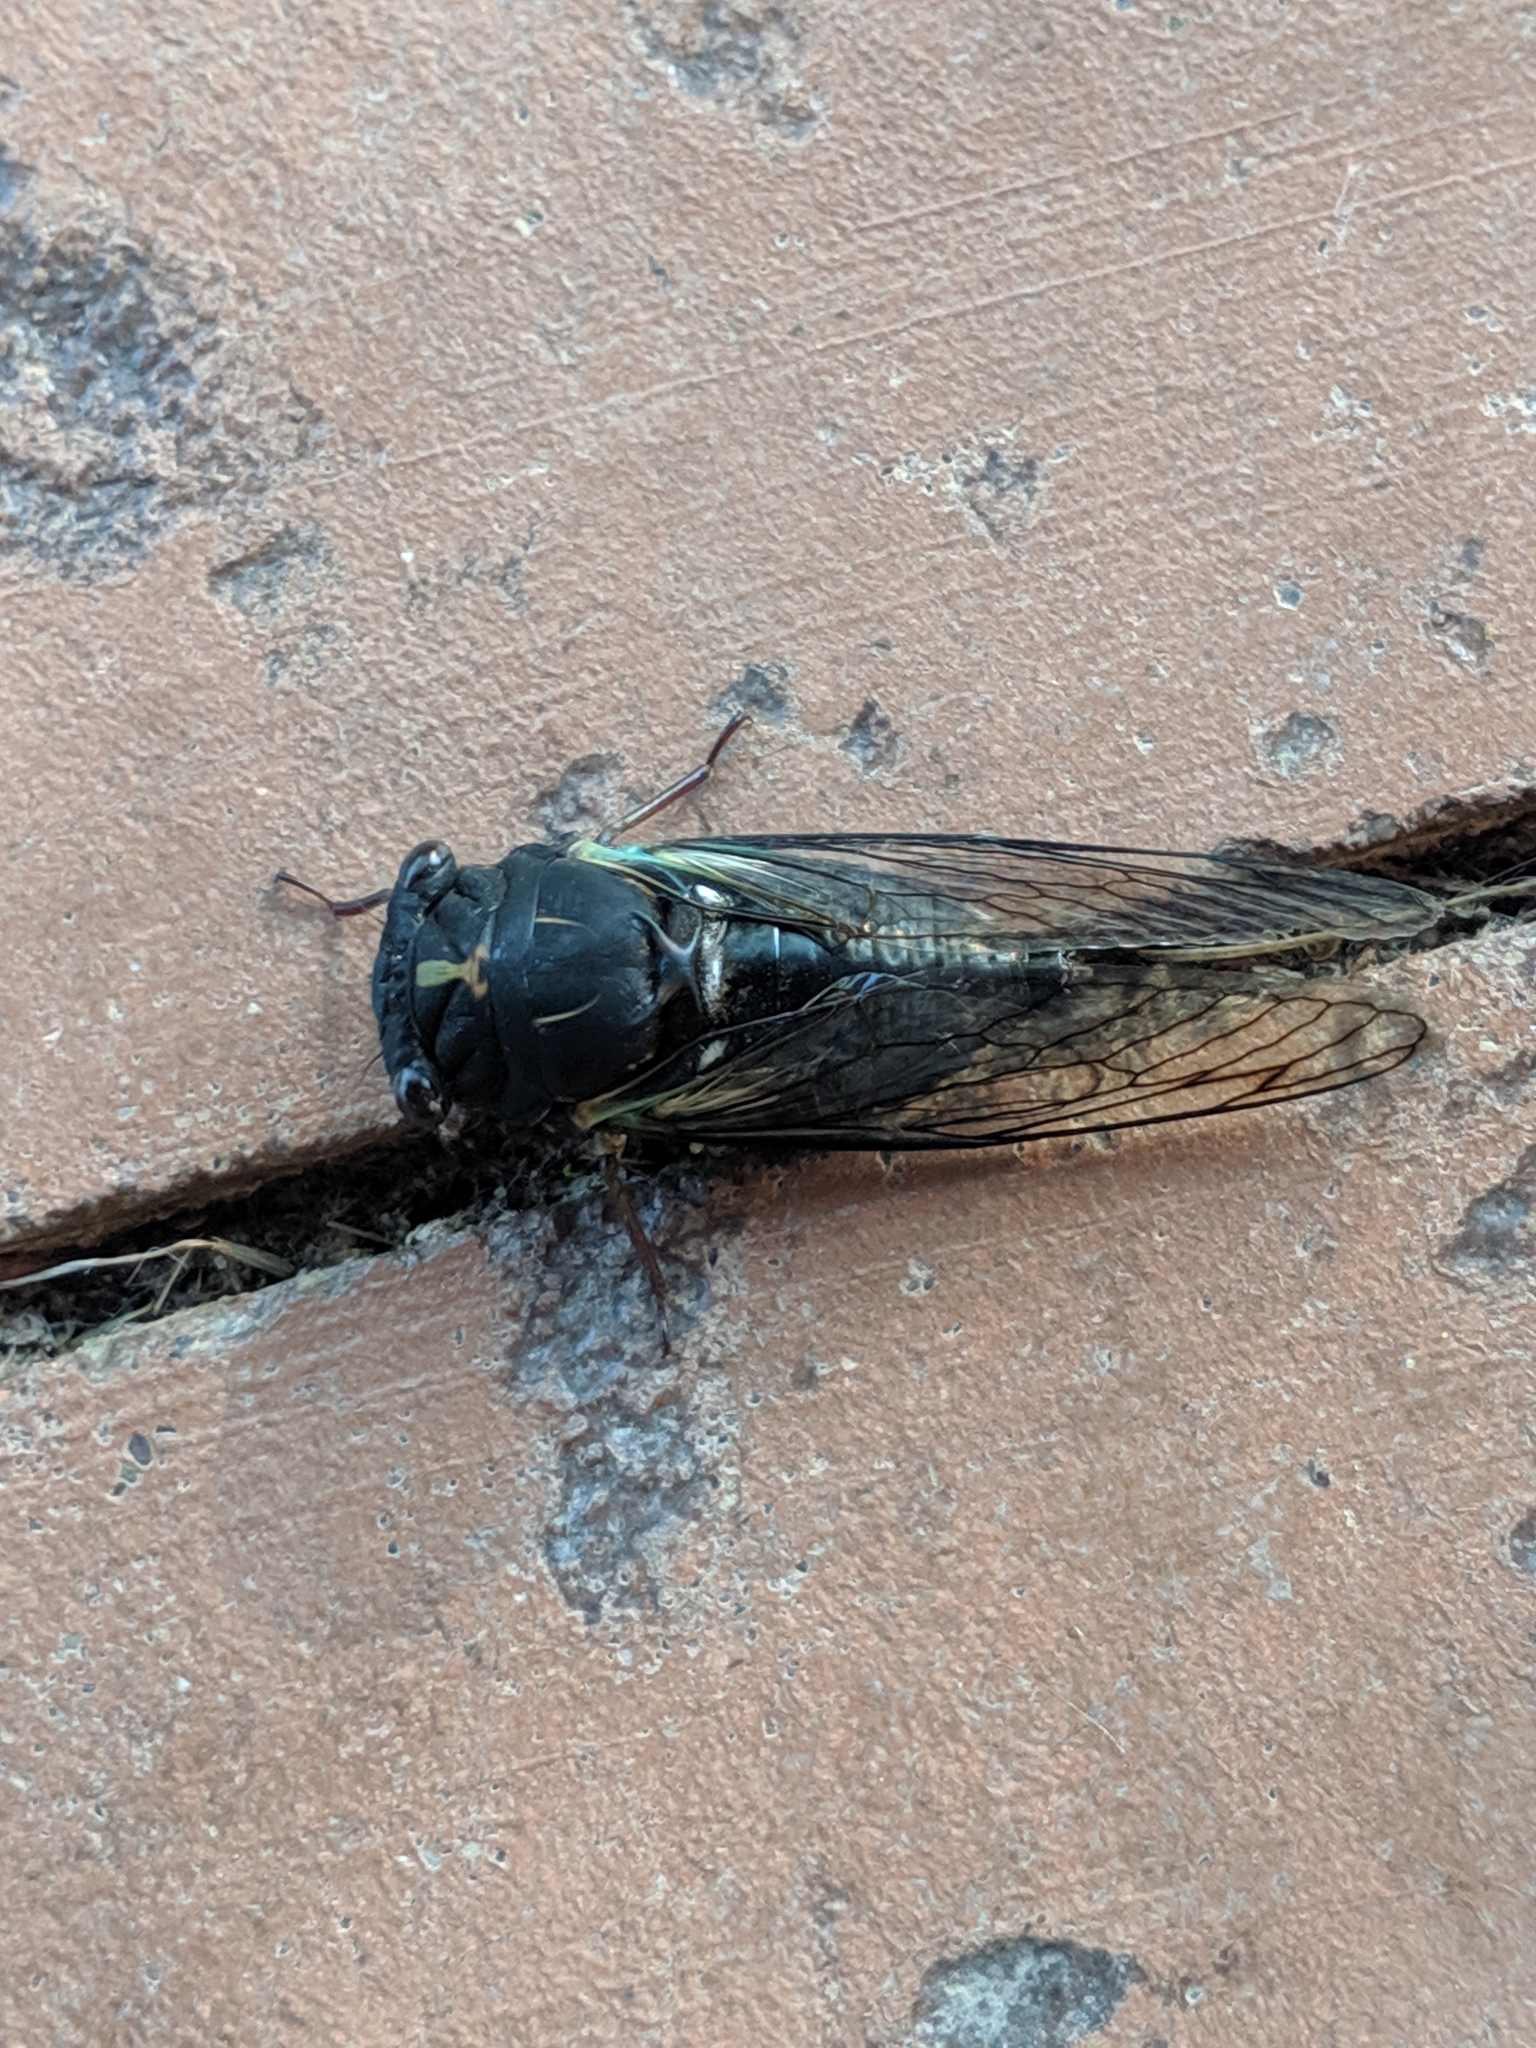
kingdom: Animalia
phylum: Arthropoda
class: Insecta
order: Hemiptera
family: Cicadidae
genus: Neotibicen
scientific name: Neotibicen lyricen
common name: Lyric cicada
